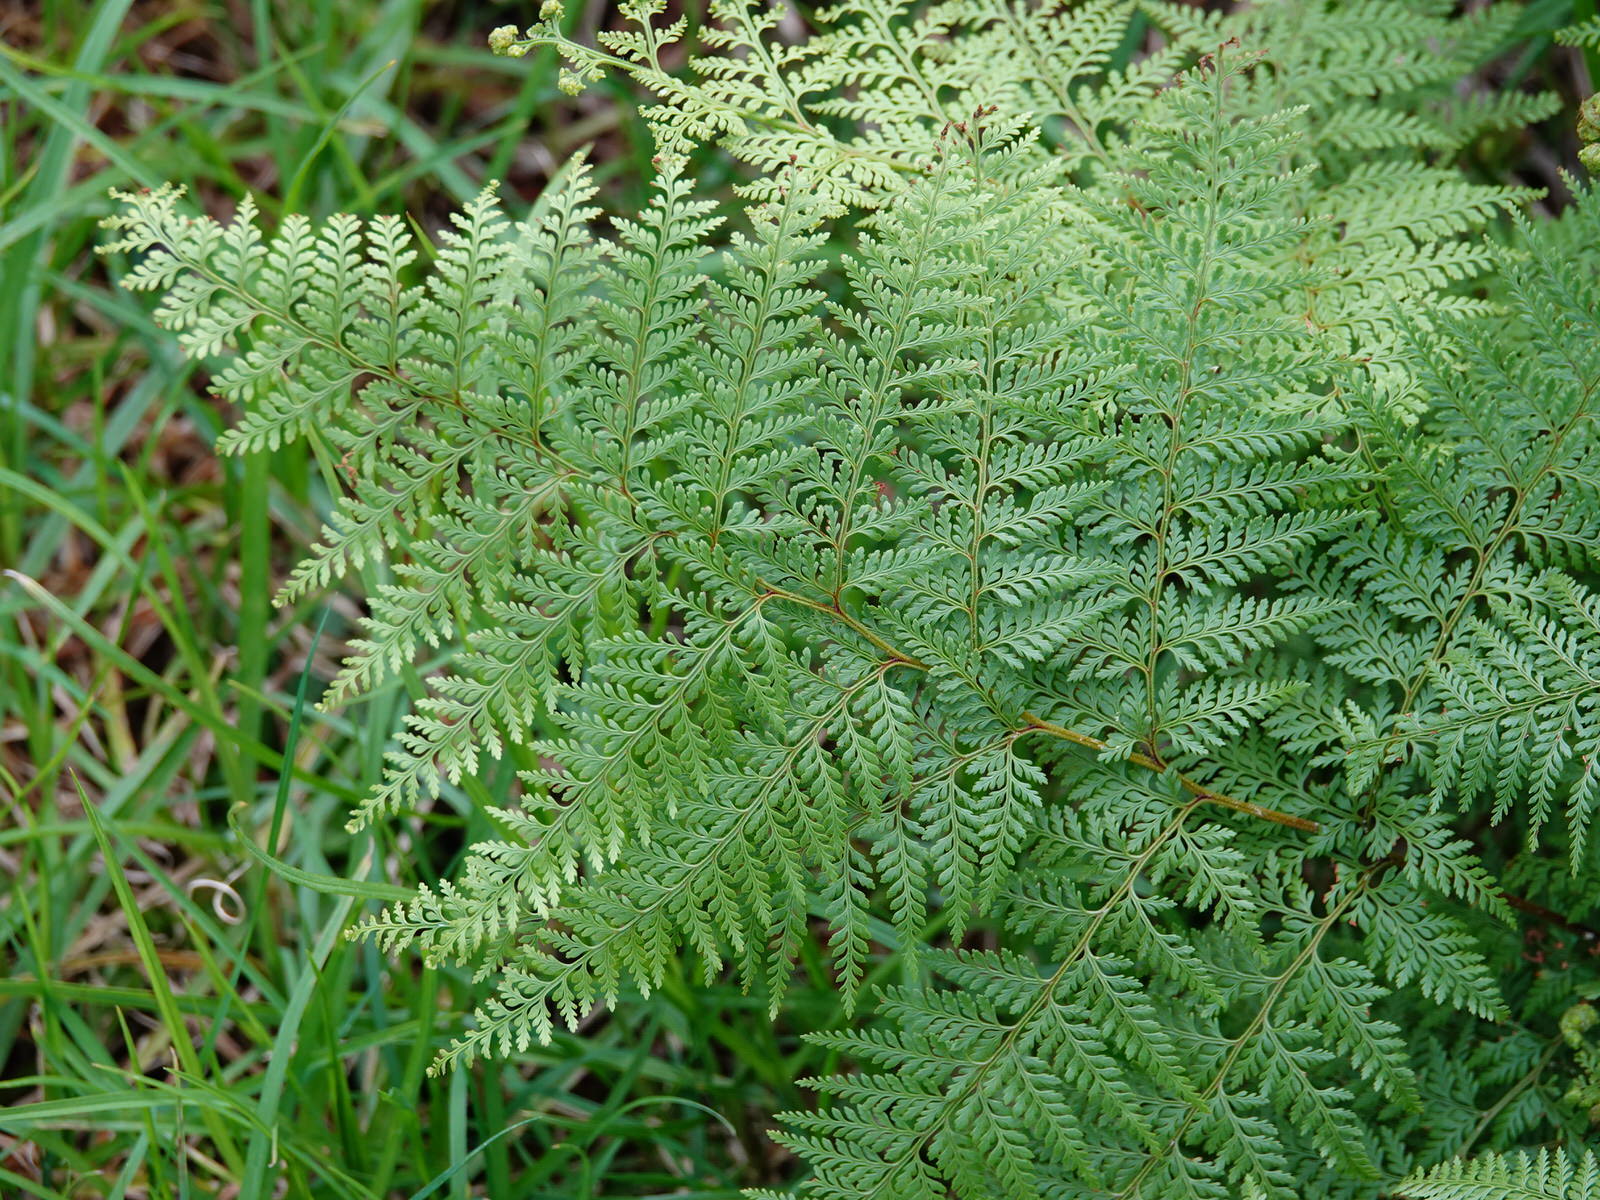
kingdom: Plantae
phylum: Tracheophyta
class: Polypodiopsida
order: Polypodiales
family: Dennstaedtiaceae
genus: Paesia
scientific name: Paesia scaberula
